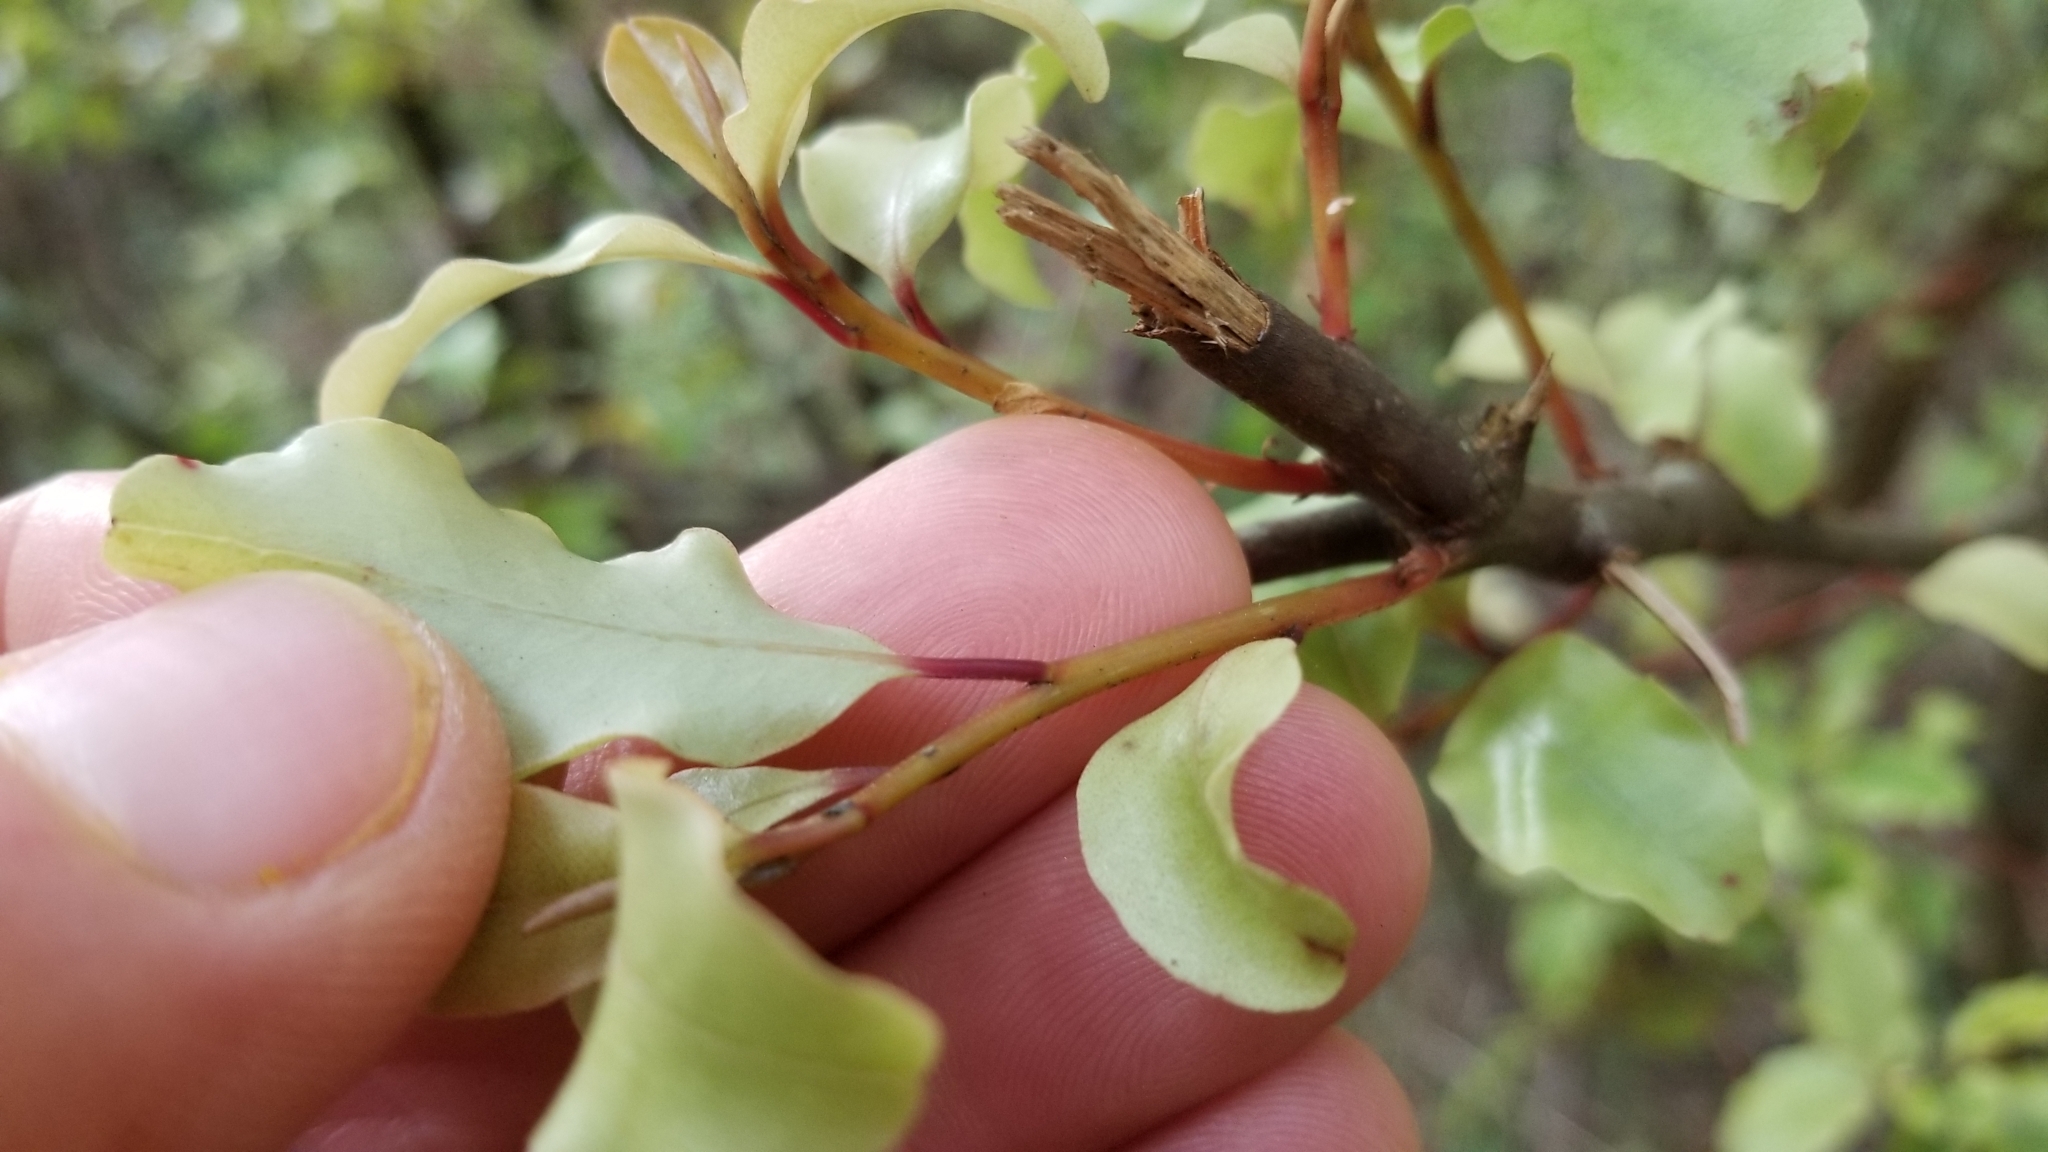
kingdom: Plantae
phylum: Tracheophyta
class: Magnoliopsida
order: Ericales
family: Primulaceae
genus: Myrsine
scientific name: Myrsine australis
